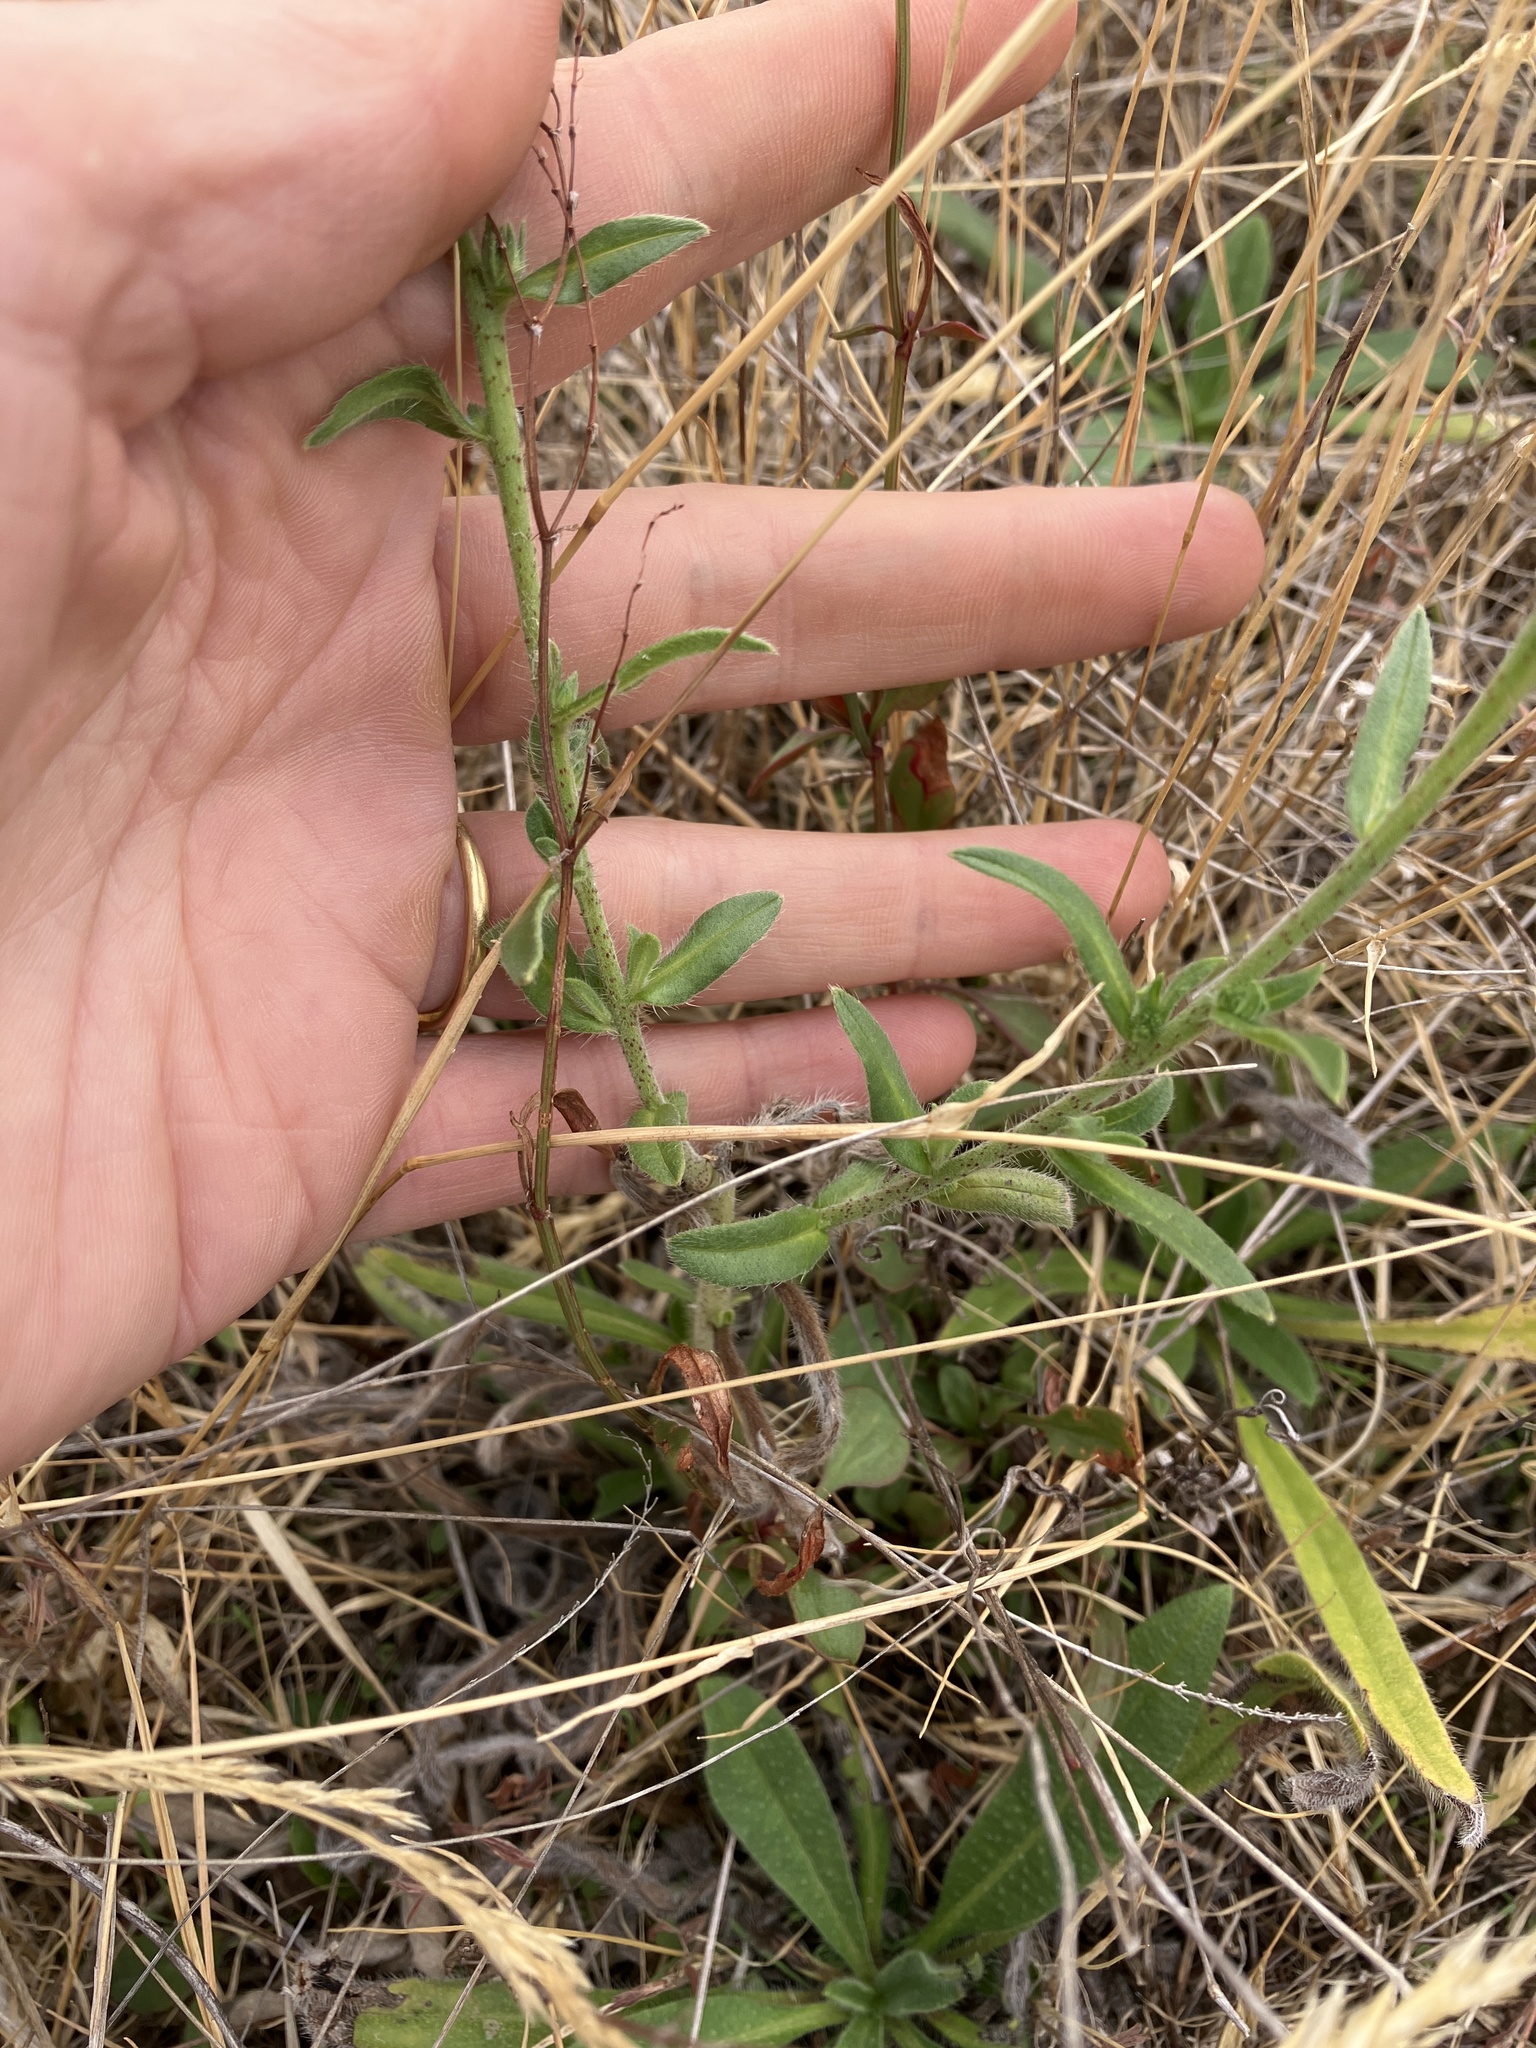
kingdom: Plantae
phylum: Tracheophyta
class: Magnoliopsida
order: Boraginales
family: Boraginaceae
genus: Echium
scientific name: Echium vulgare
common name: Common viper's bugloss
